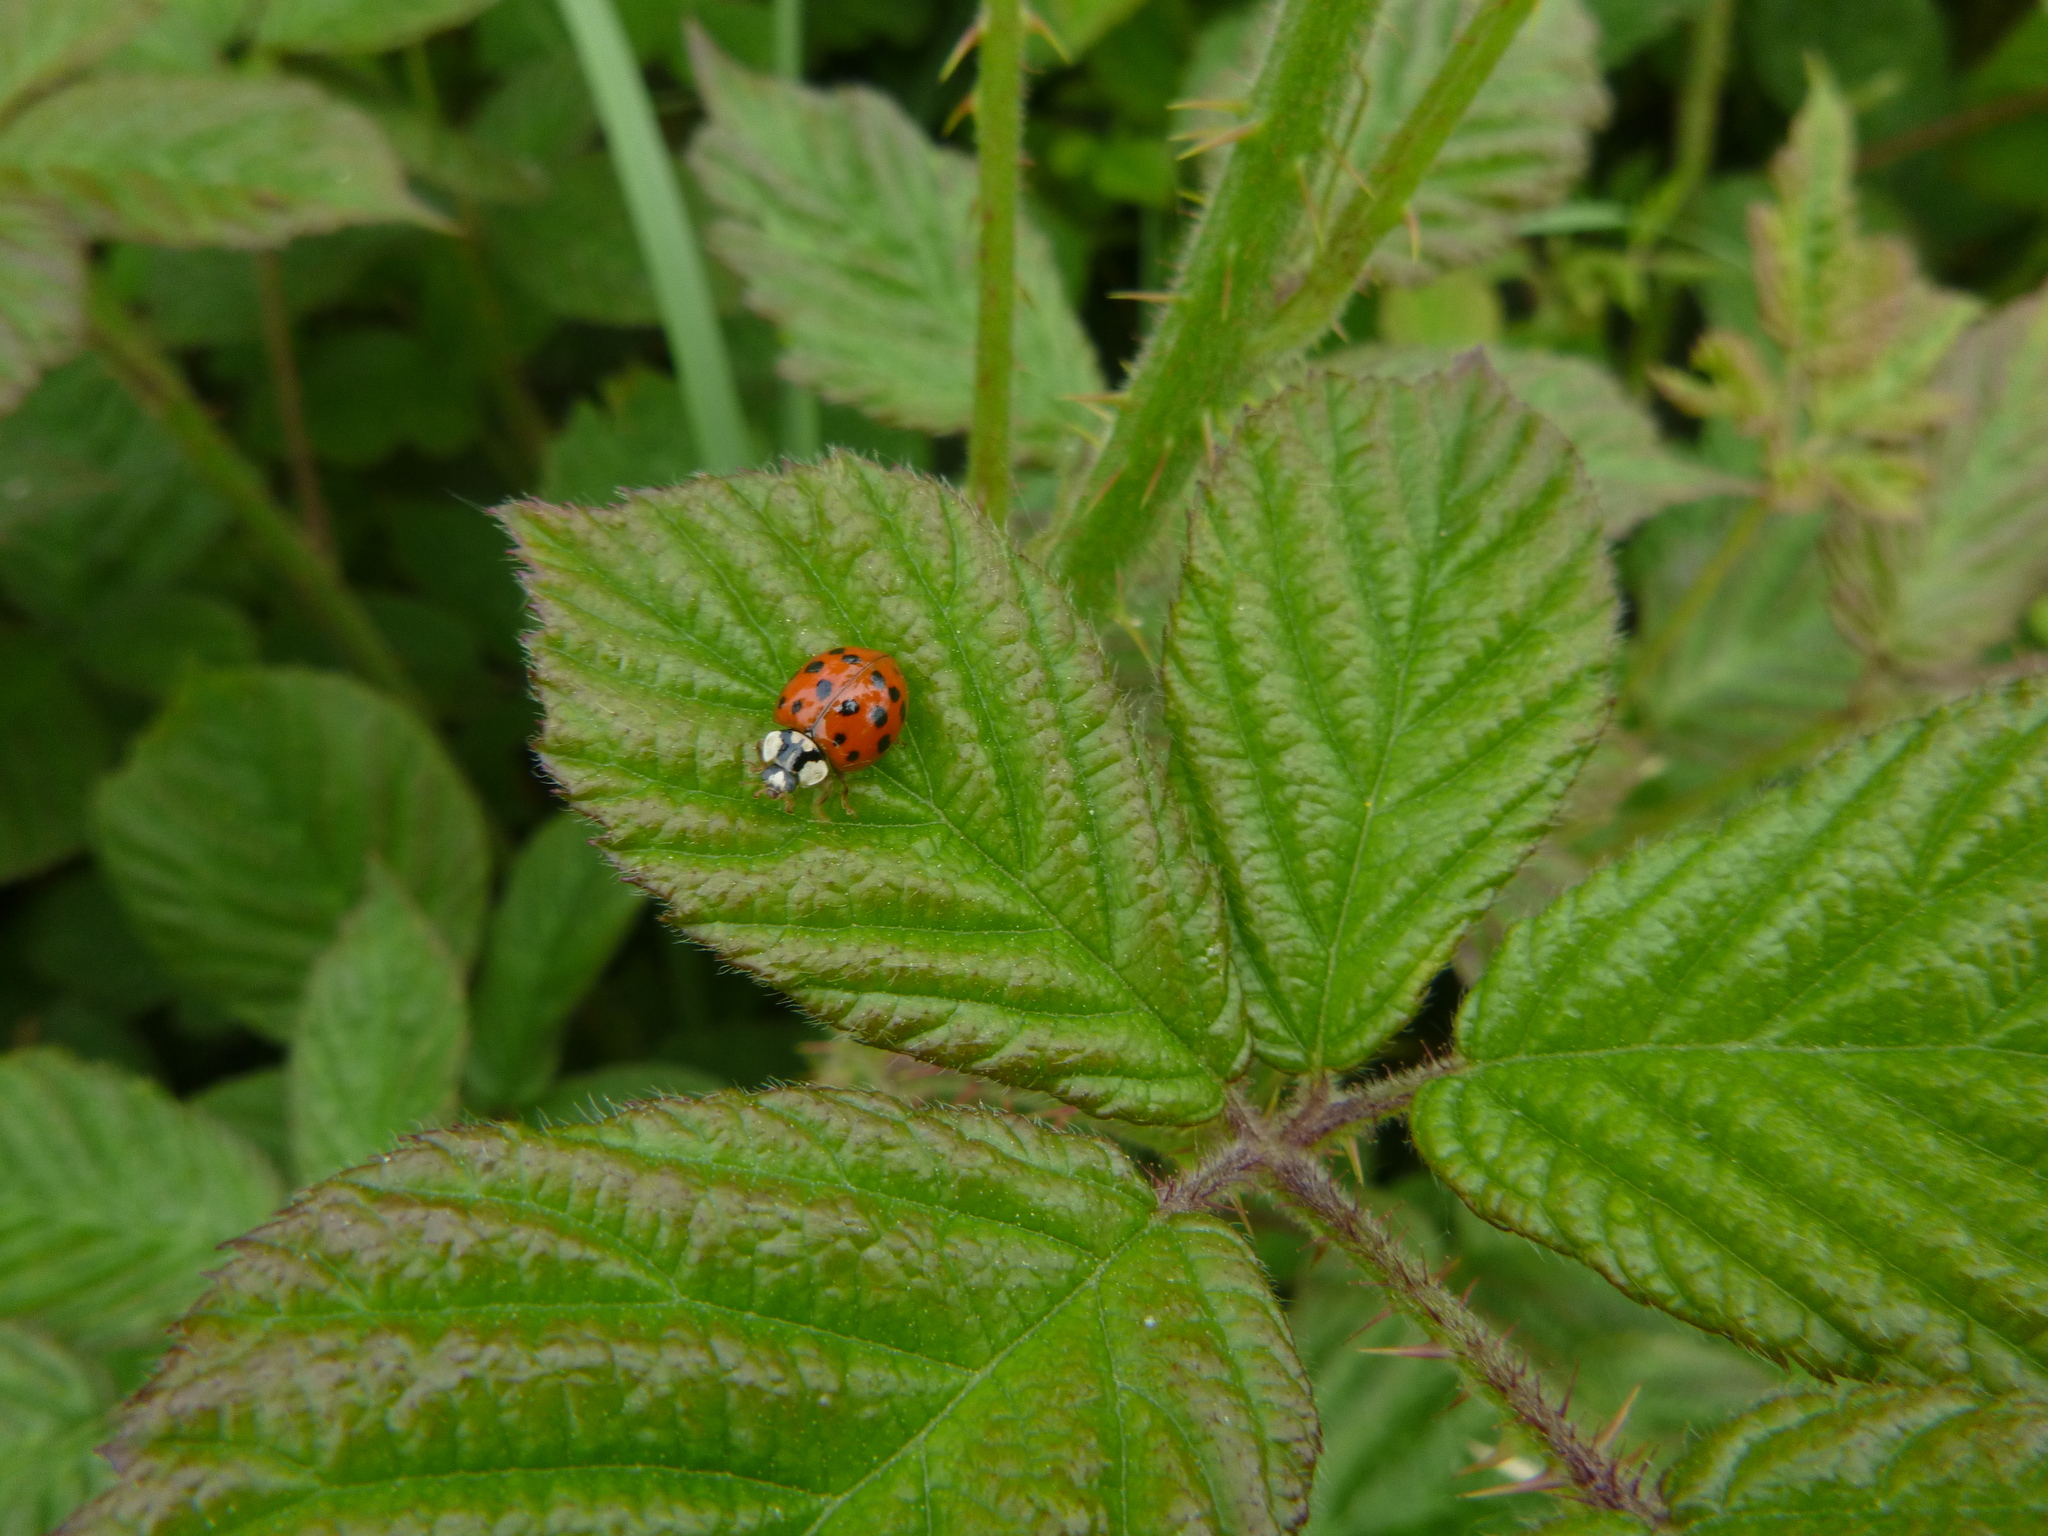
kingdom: Animalia
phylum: Arthropoda
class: Insecta
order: Coleoptera
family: Coccinellidae
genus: Harmonia
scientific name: Harmonia axyridis
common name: Harlequin ladybird
